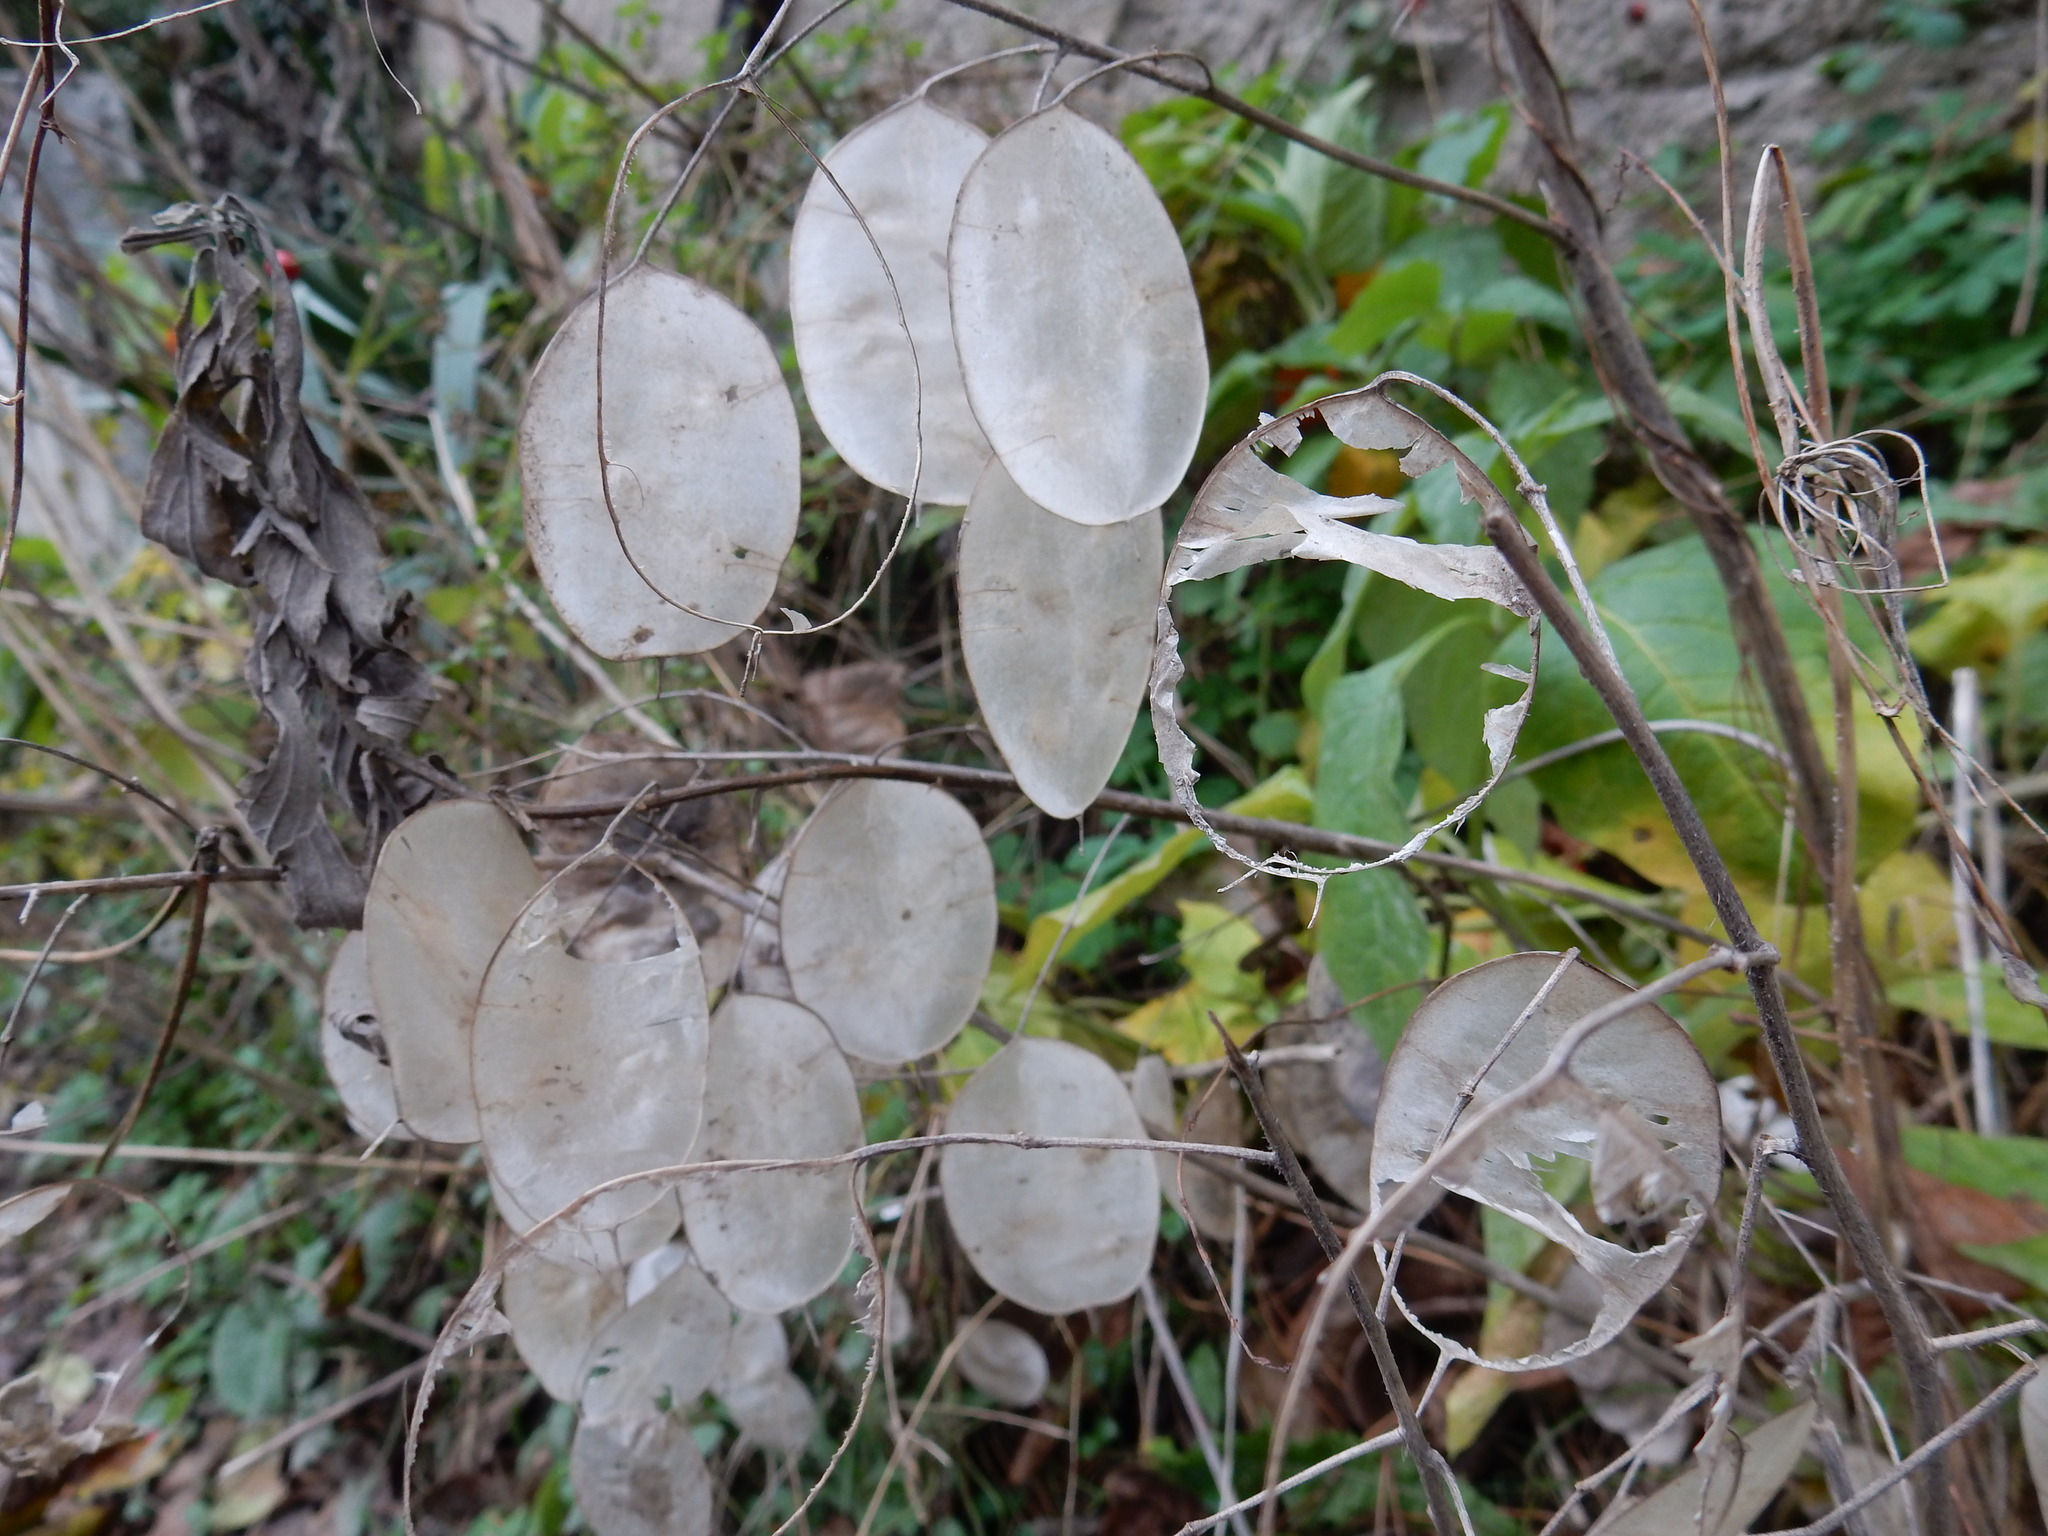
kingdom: Plantae
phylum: Tracheophyta
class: Magnoliopsida
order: Brassicales
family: Brassicaceae
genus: Lunaria
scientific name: Lunaria annua
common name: Honesty
